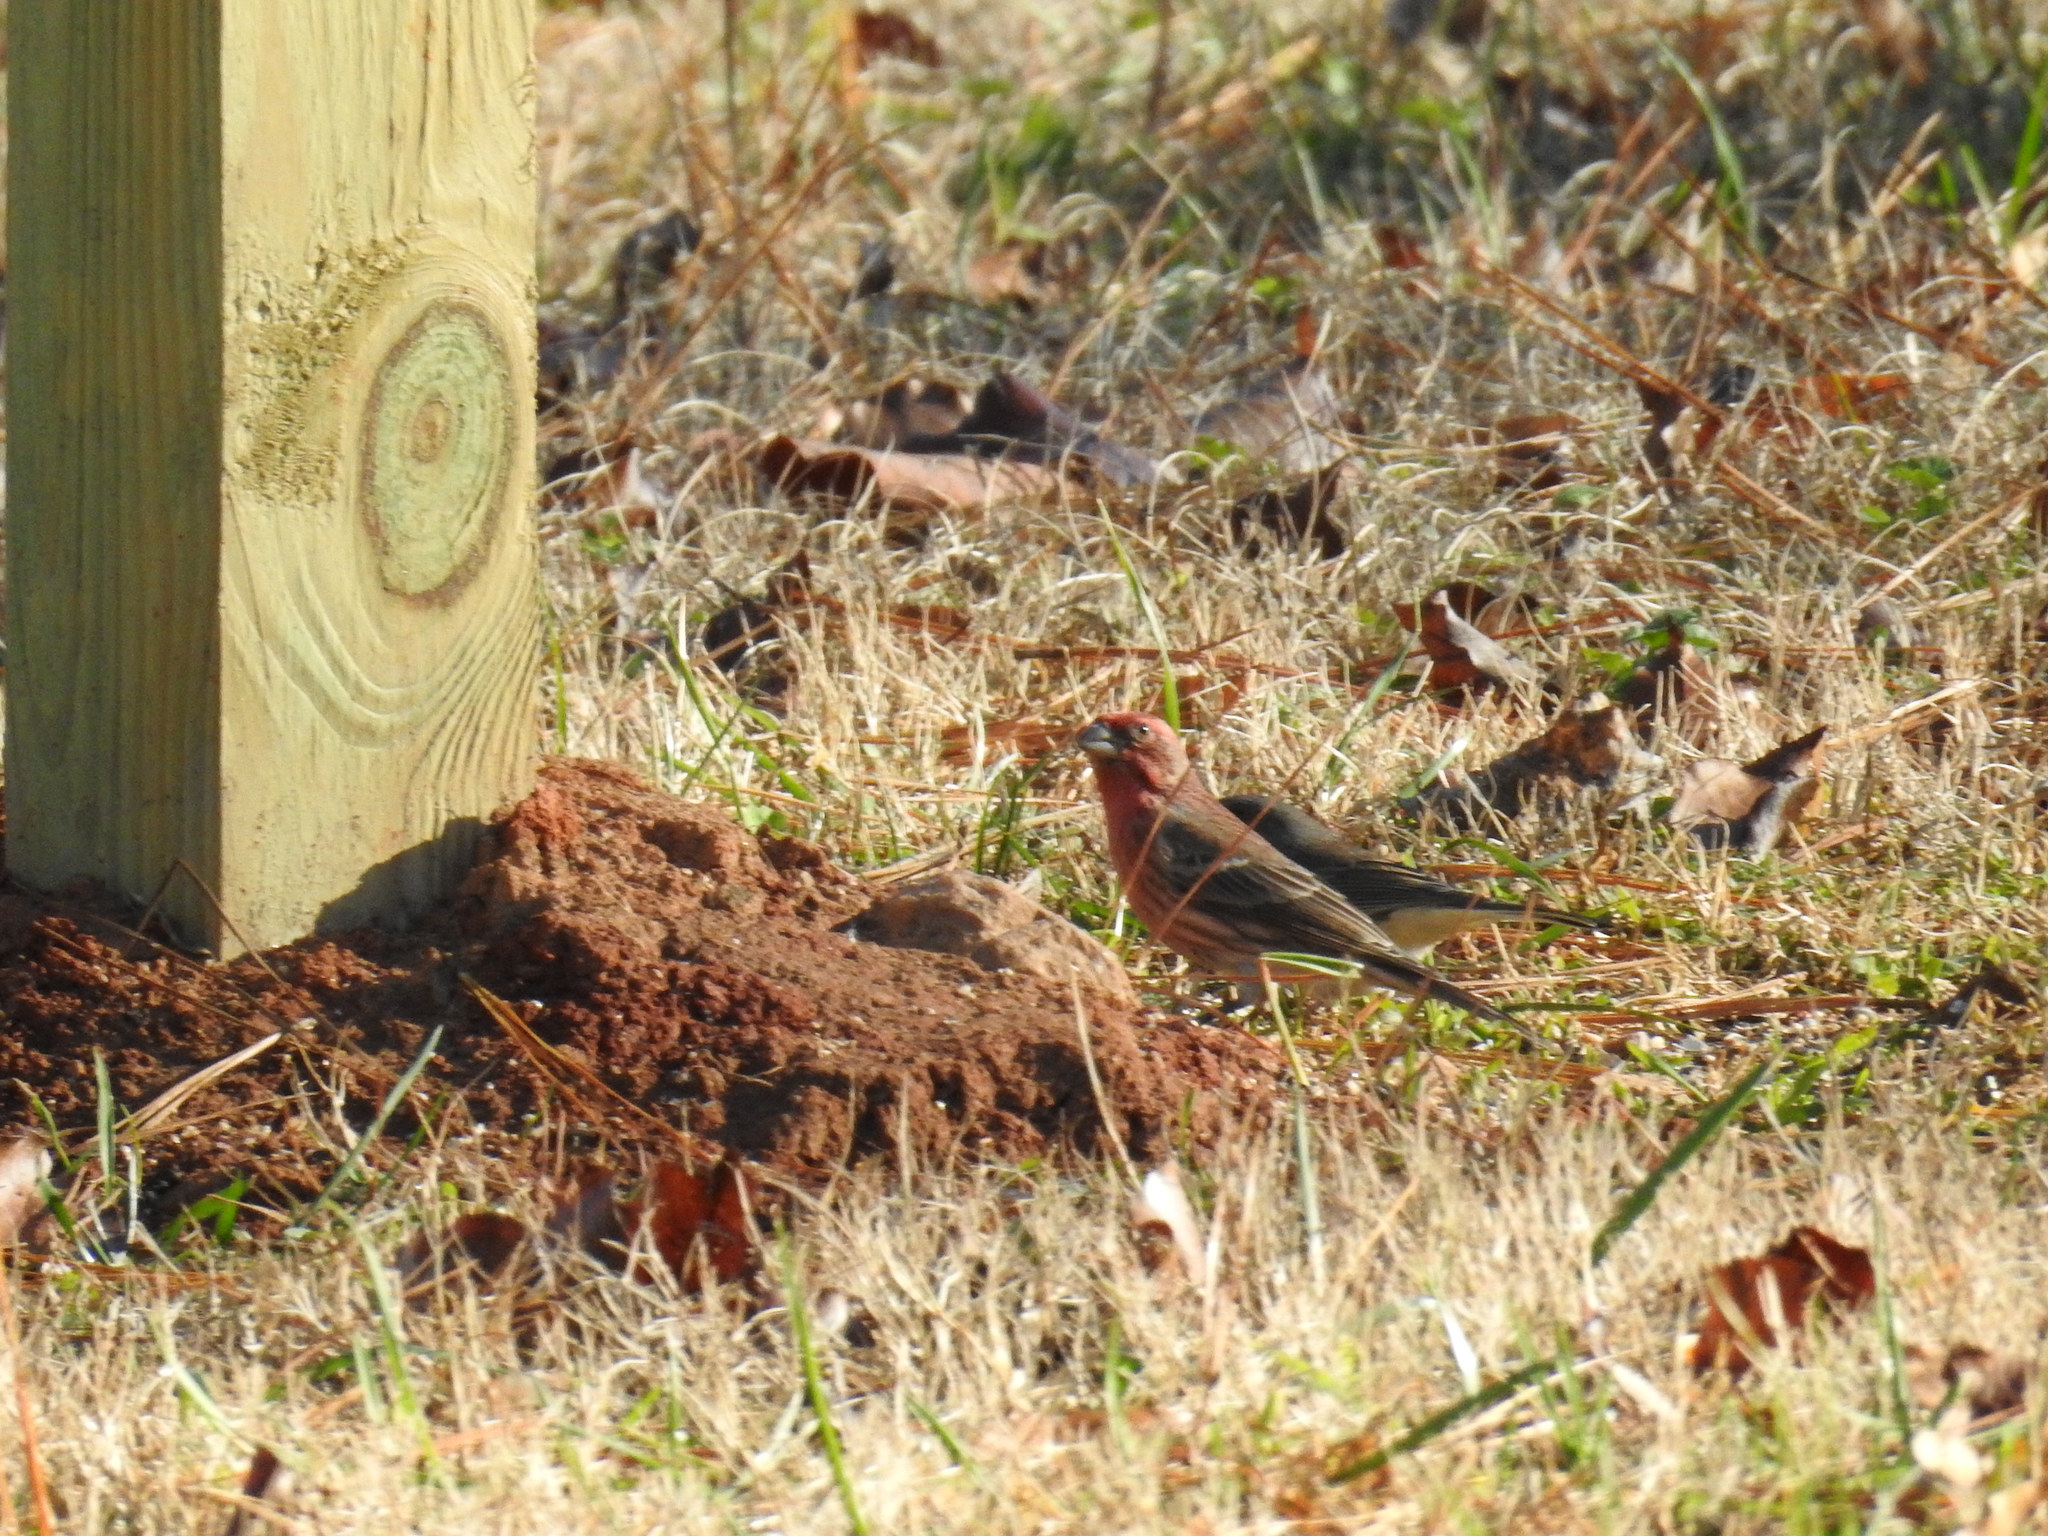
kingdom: Animalia
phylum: Chordata
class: Aves
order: Passeriformes
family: Fringillidae
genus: Haemorhous
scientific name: Haemorhous mexicanus
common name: House finch
